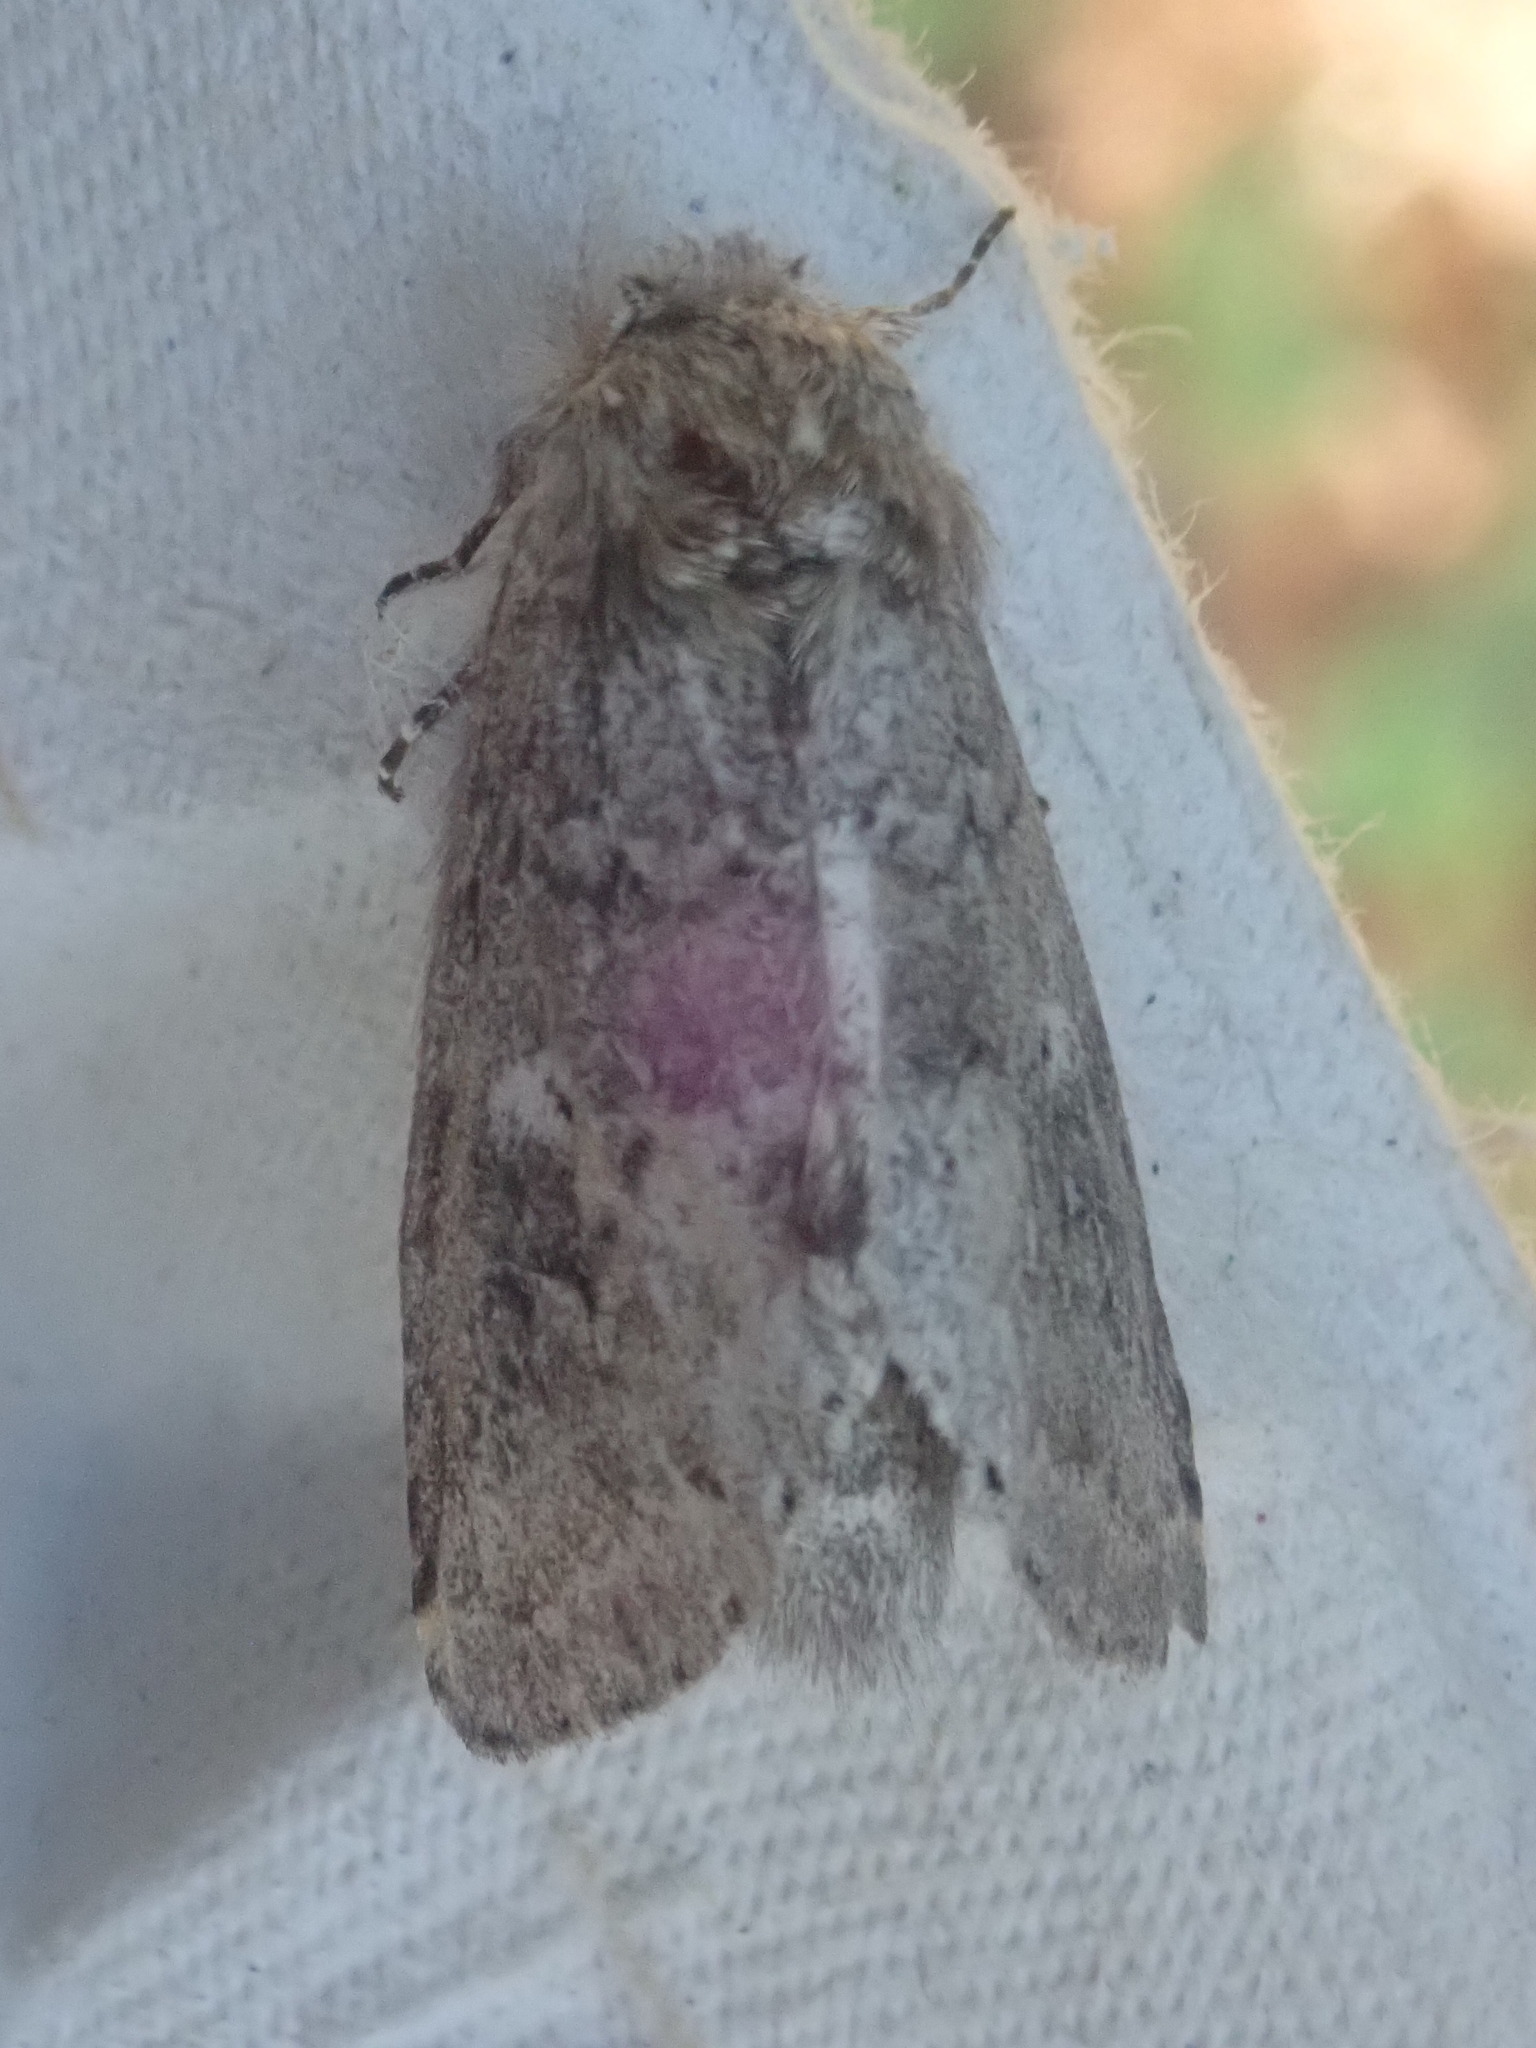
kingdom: Animalia
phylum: Arthropoda
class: Insecta
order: Lepidoptera
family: Notodontidae
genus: Lochmaeus
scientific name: Lochmaeus manteo
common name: Variable oakleaf caterpillar moth
